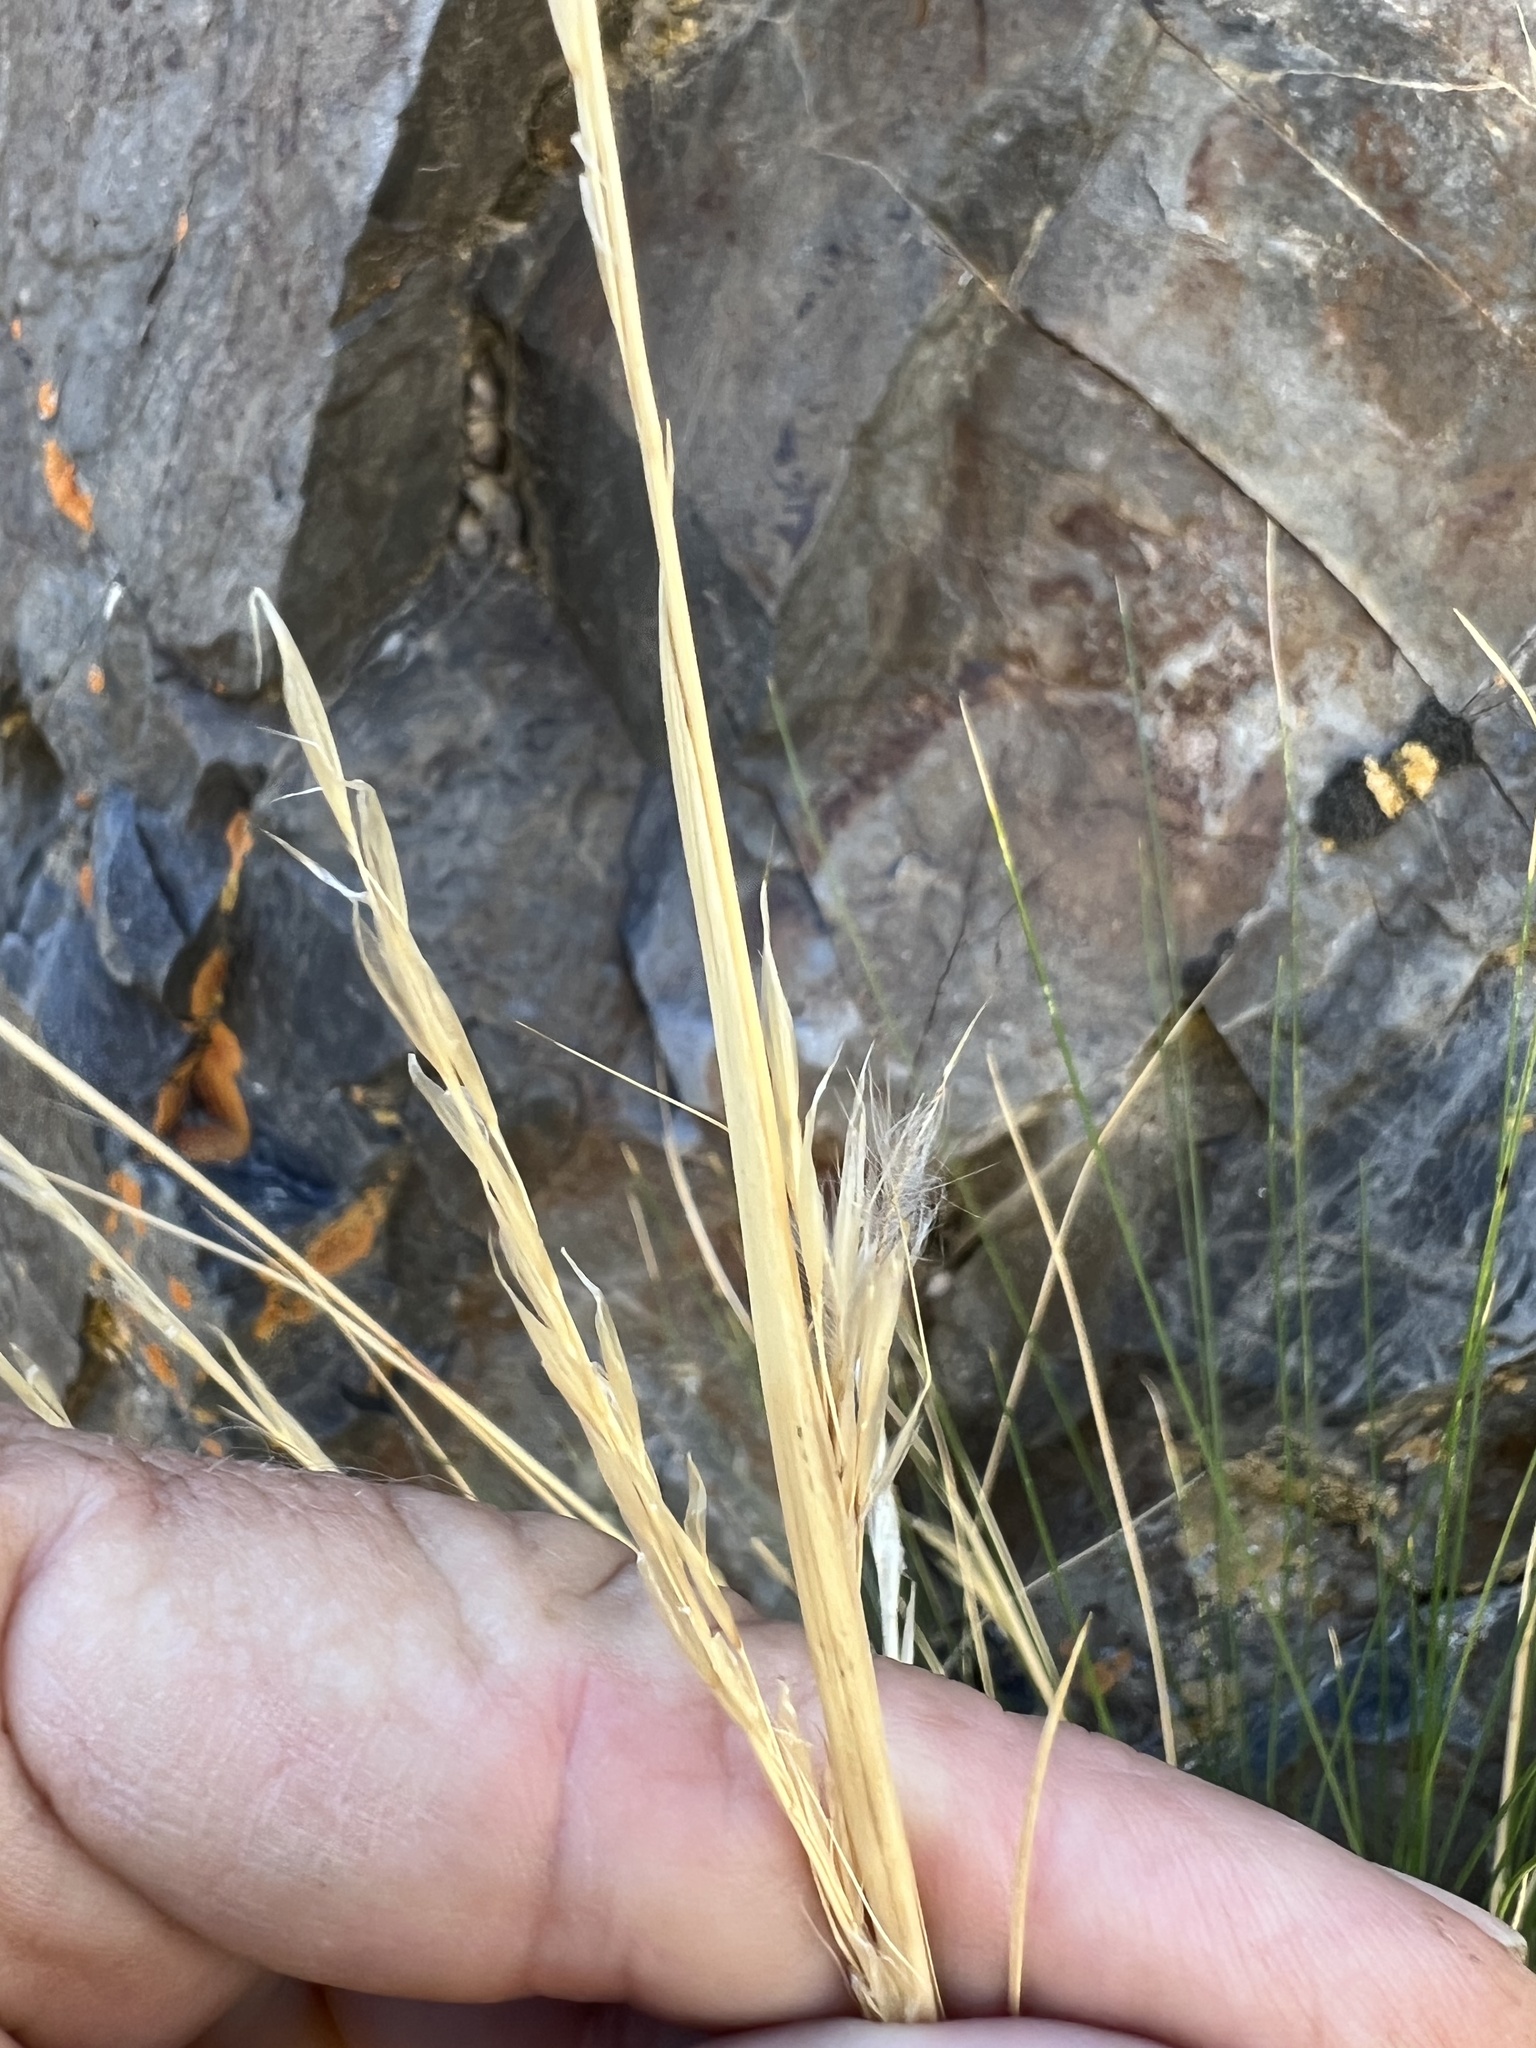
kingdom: Plantae
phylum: Tracheophyta
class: Liliopsida
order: Poales
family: Poaceae
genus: Pappostipa
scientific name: Pappostipa speciosa
